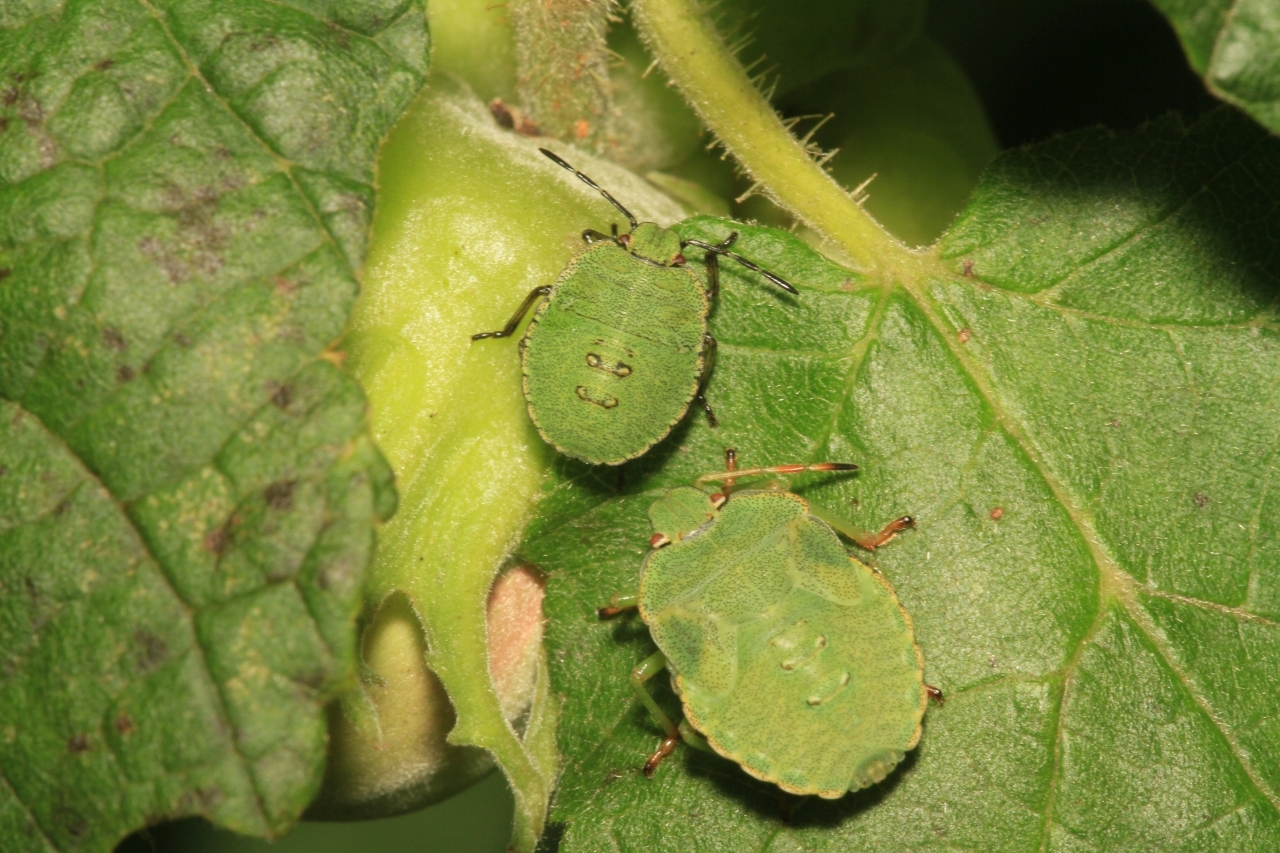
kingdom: Animalia
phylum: Arthropoda
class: Insecta
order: Hemiptera
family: Pentatomidae
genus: Palomena
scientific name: Palomena prasina
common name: Green shieldbug
